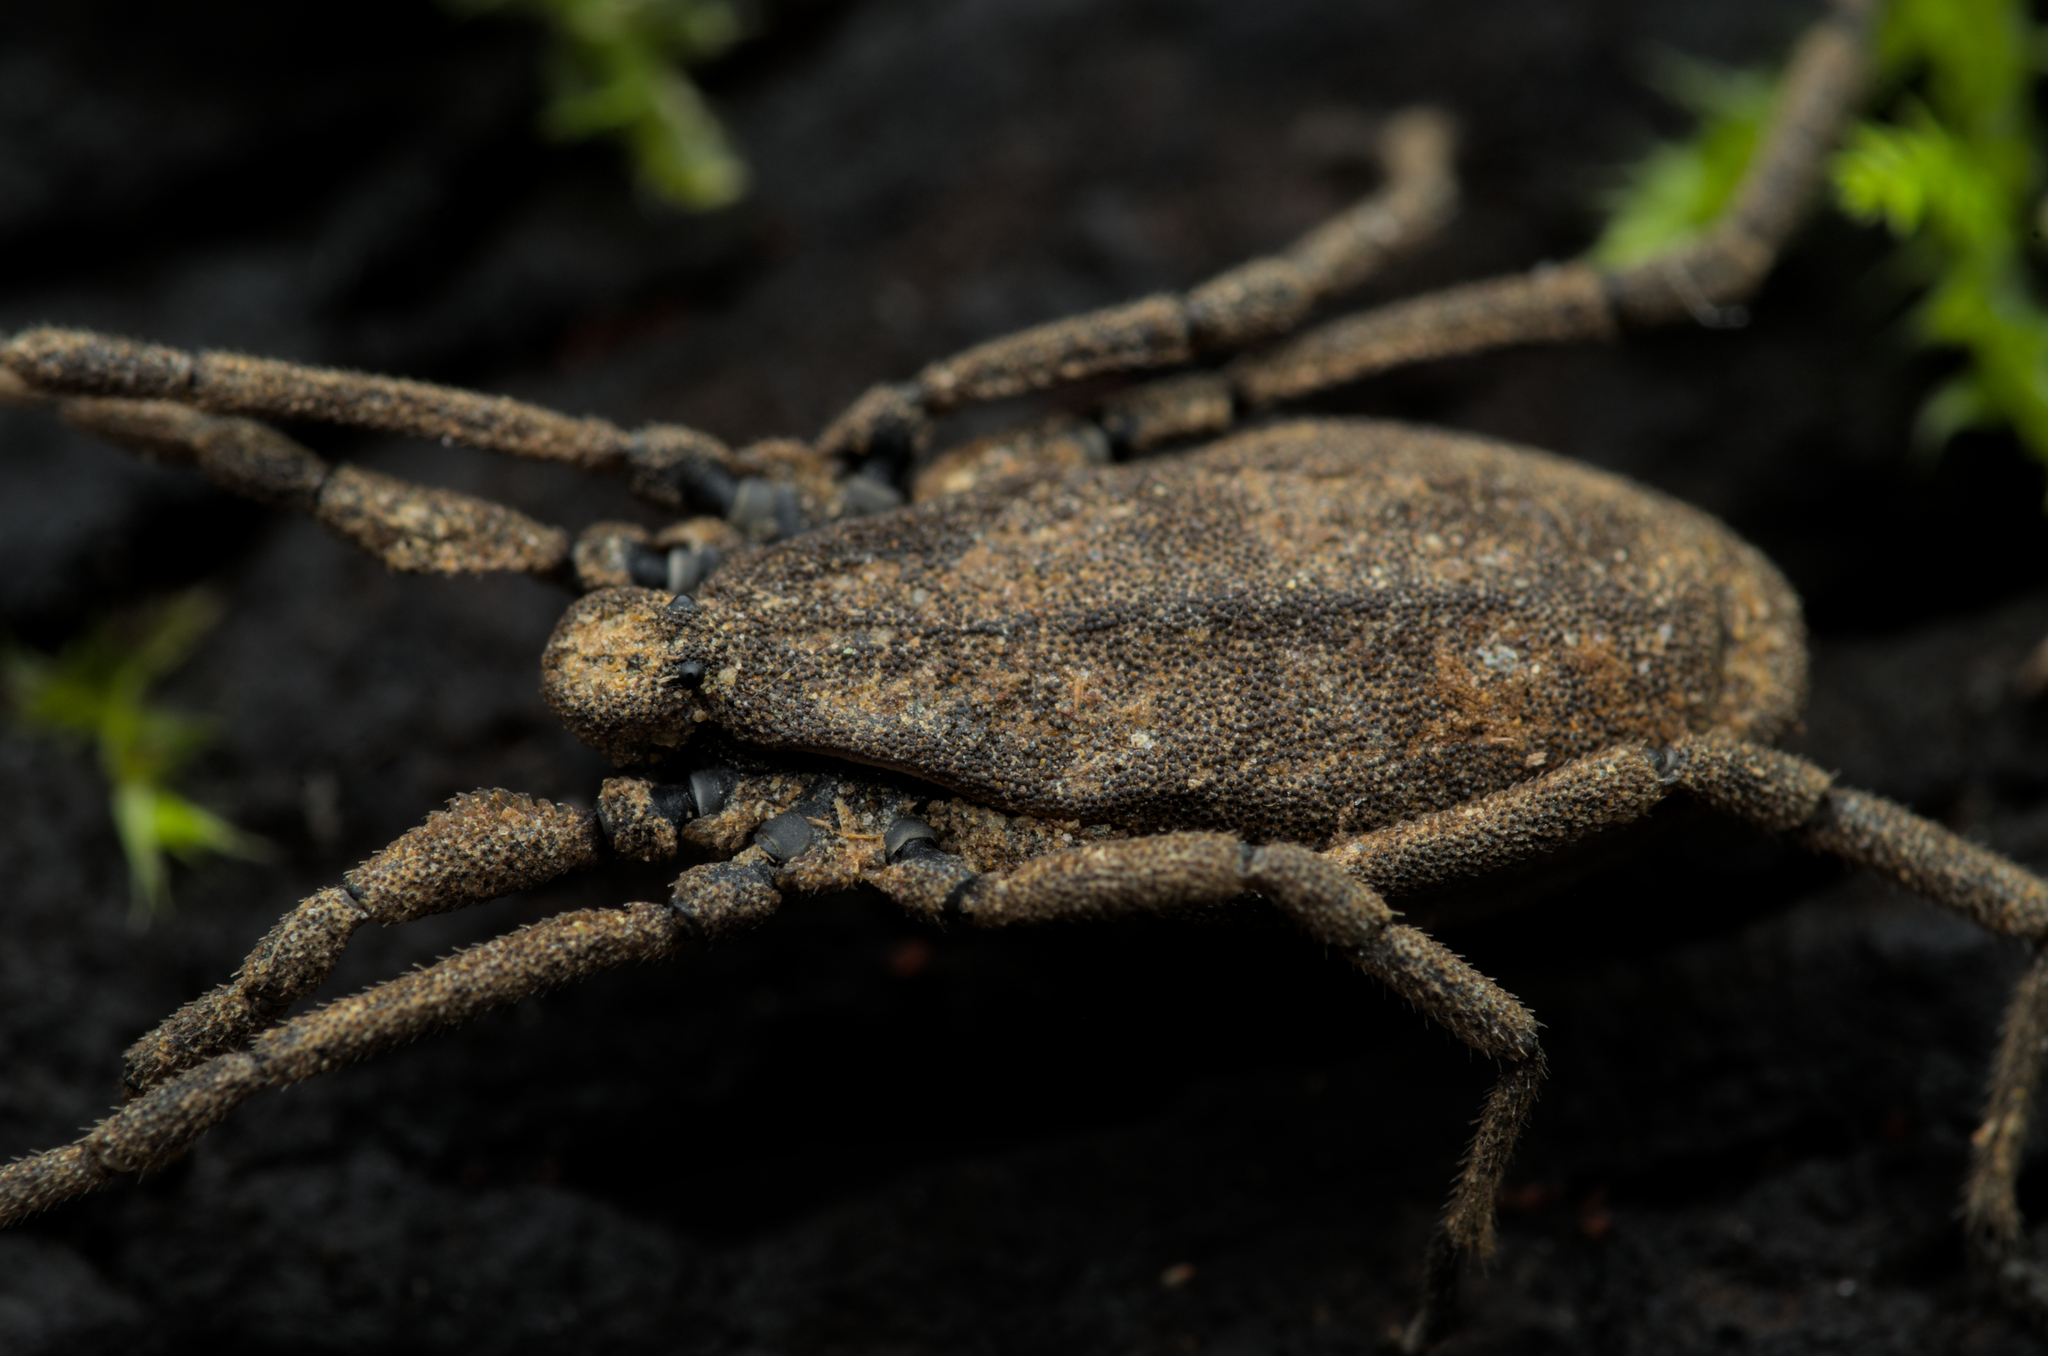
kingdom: Animalia
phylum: Arthropoda
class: Arachnida
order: Opiliones
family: Trogulidae
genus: Trogulus
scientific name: Trogulus nepaeformis
